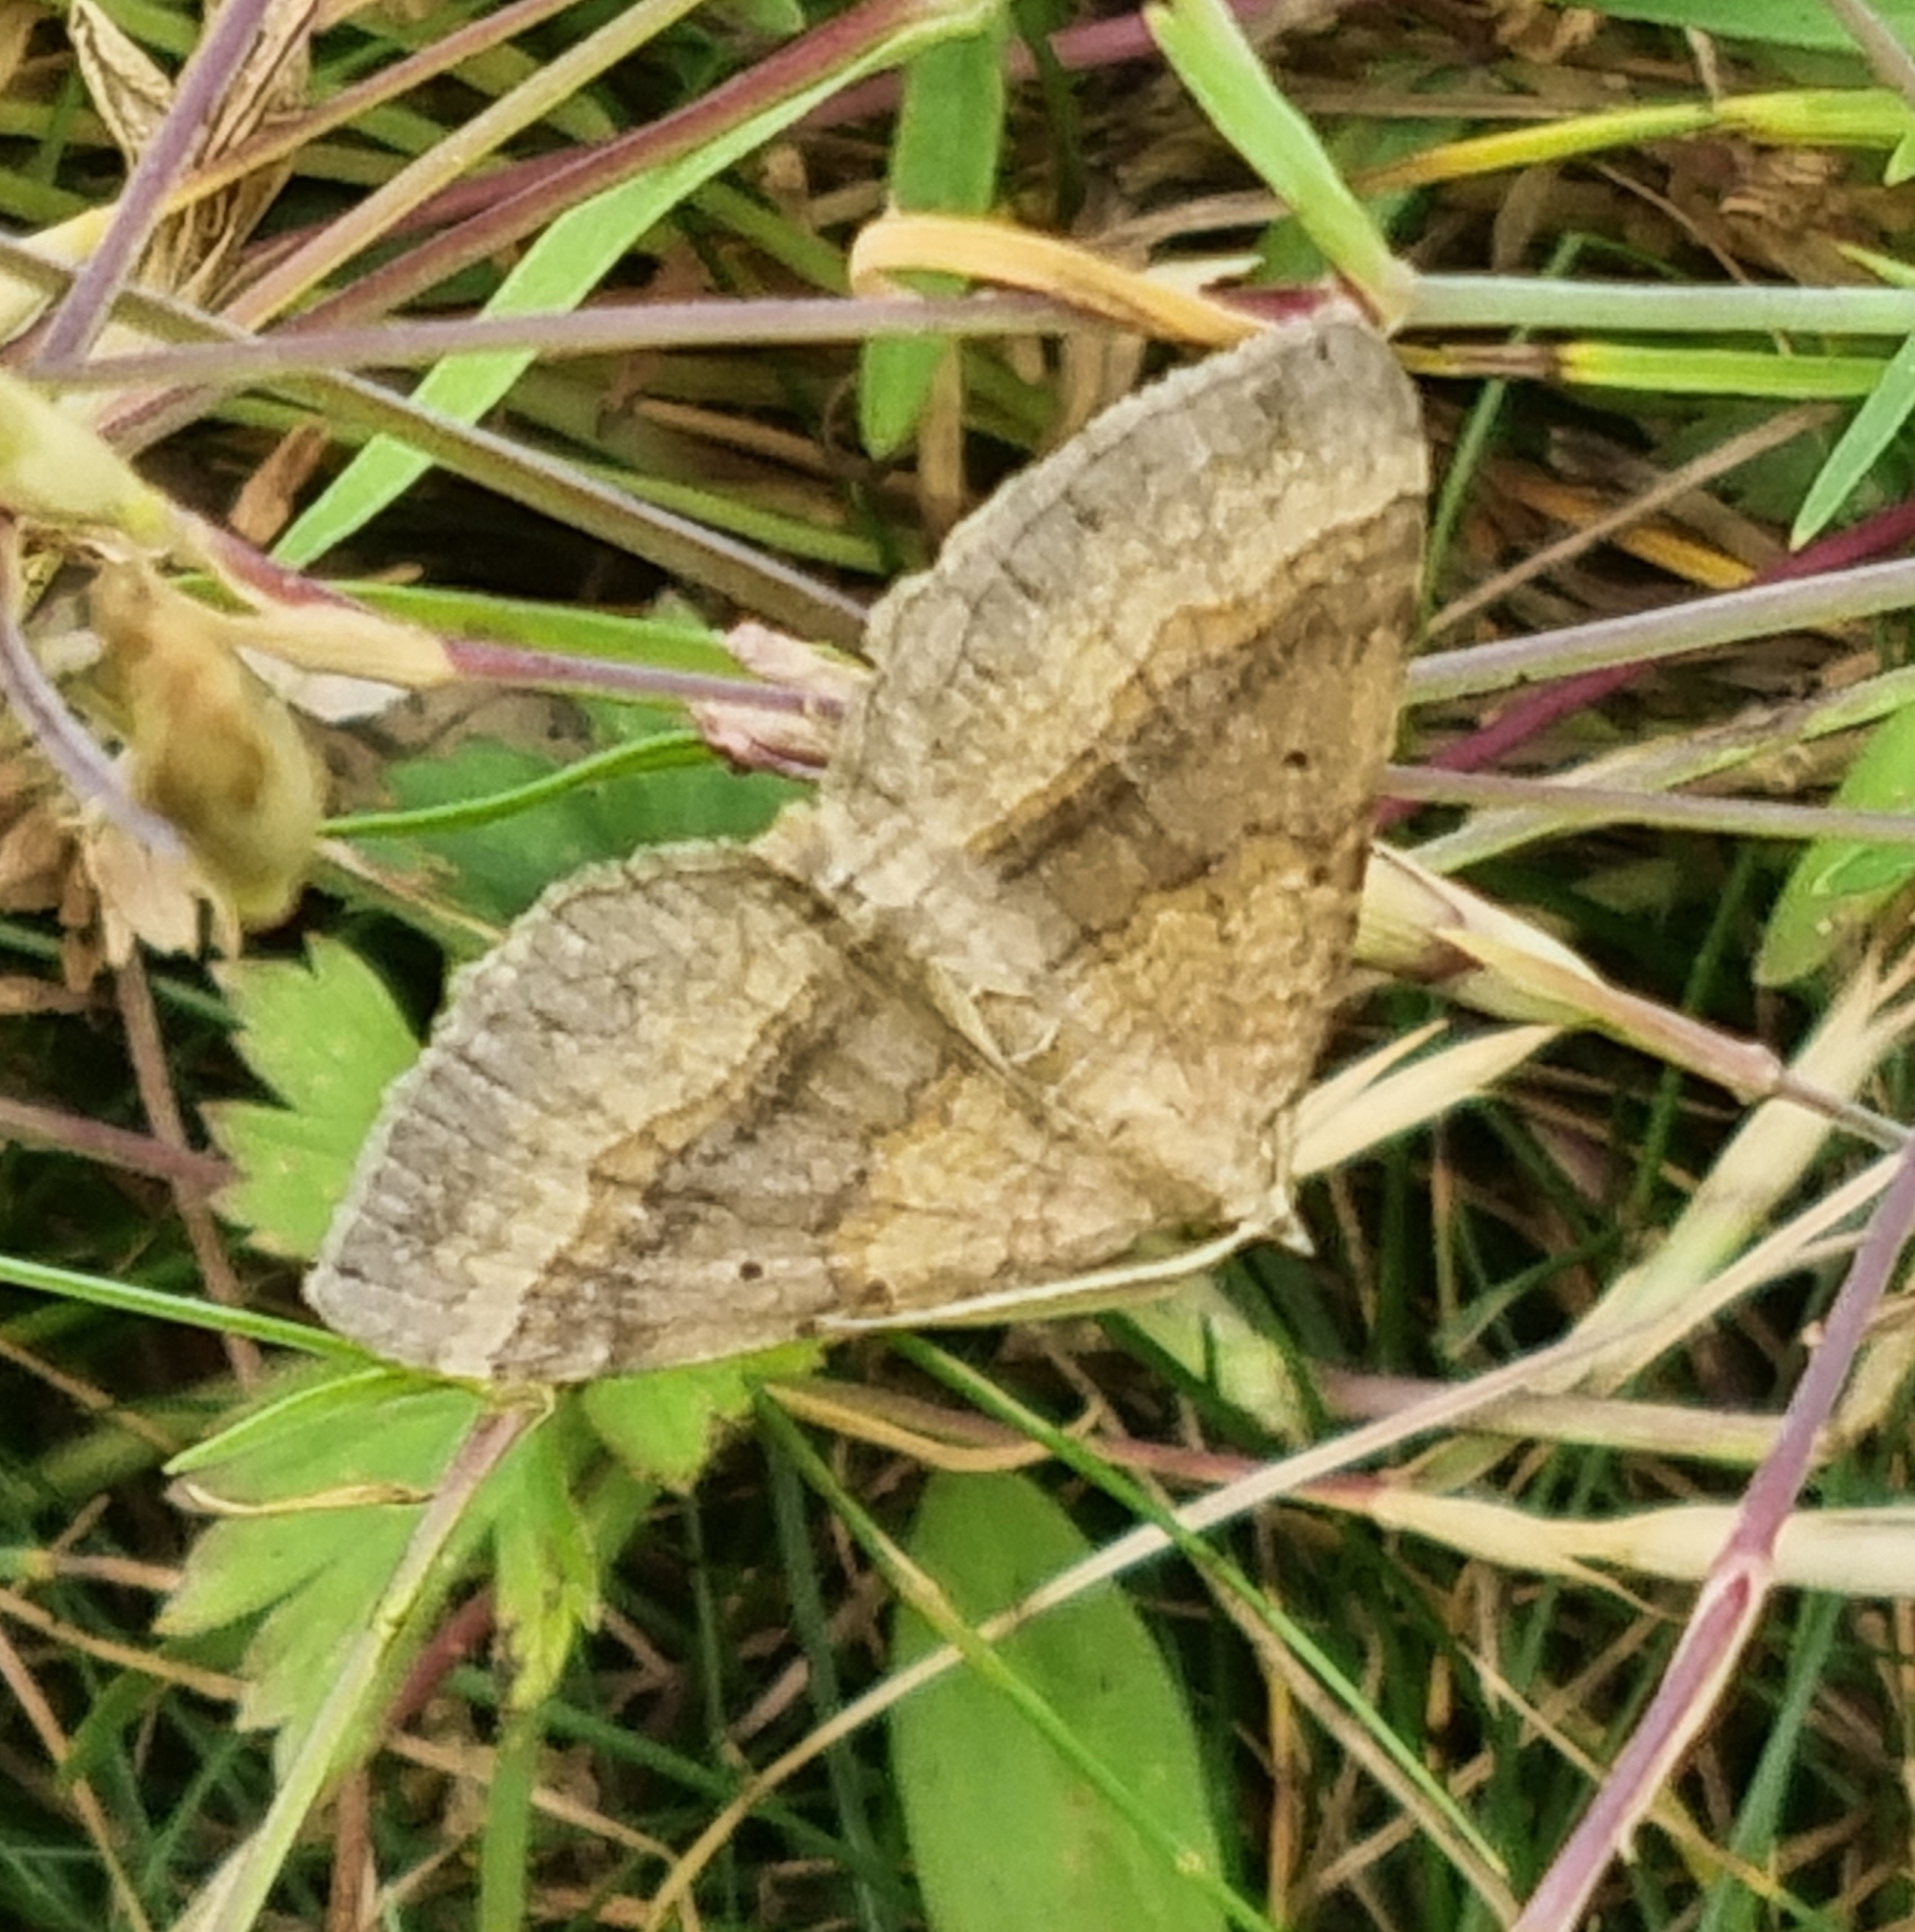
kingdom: Animalia
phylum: Arthropoda
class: Insecta
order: Lepidoptera
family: Geometridae
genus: Scotopteryx
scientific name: Scotopteryx chenopodiata
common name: Shaded broad-bar
